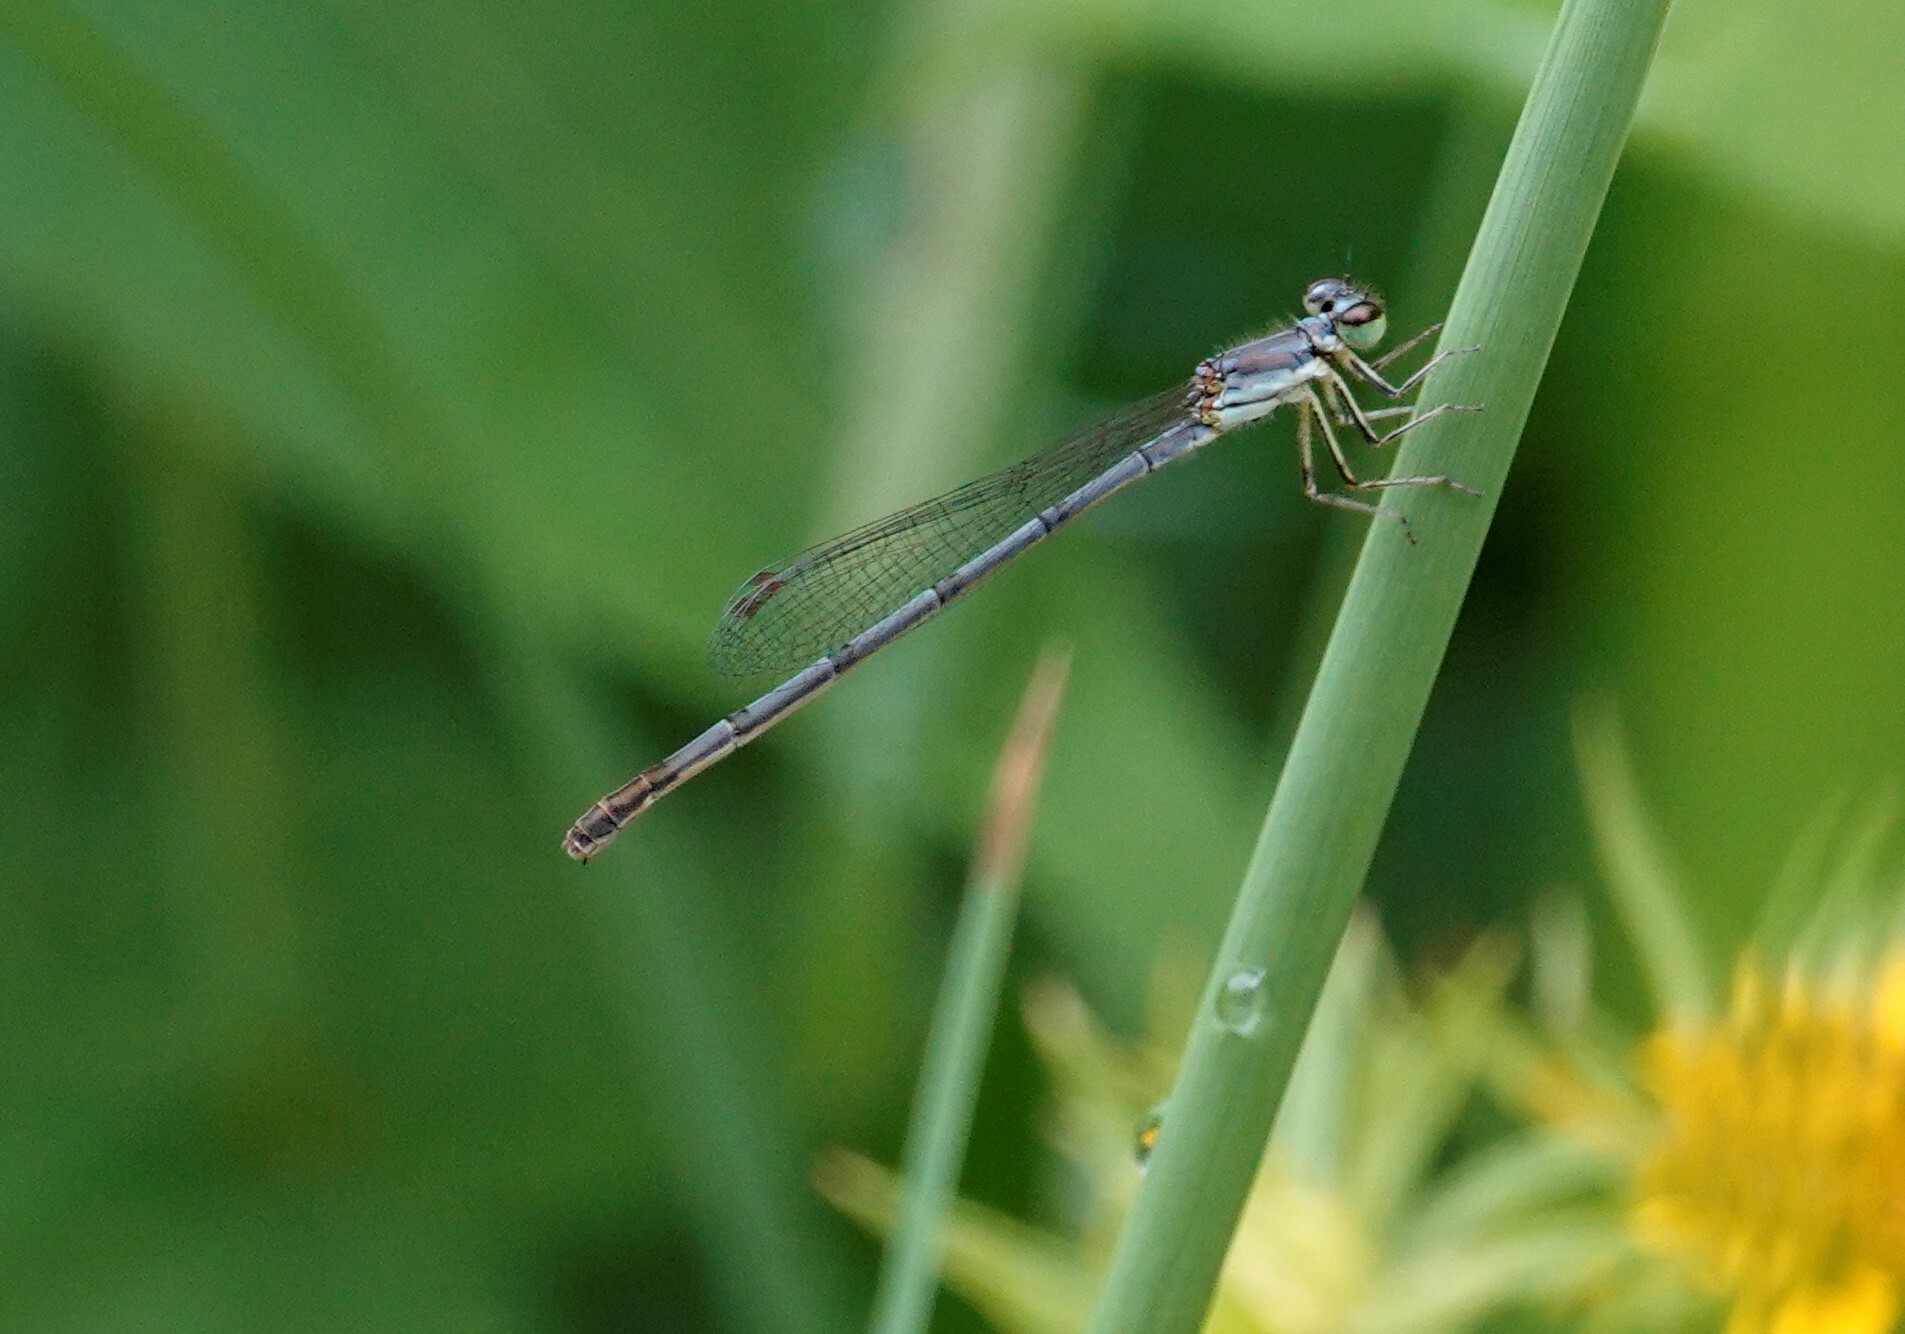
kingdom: Animalia
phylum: Arthropoda
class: Insecta
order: Odonata
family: Coenagrionidae
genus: Ischnura
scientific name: Ischnura posita
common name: Fragile forktail
